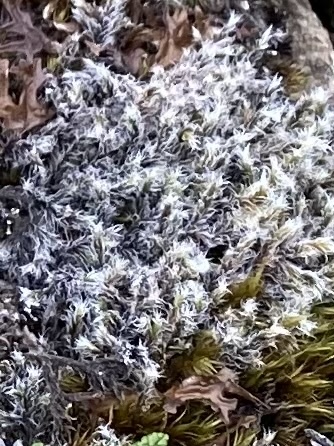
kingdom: Plantae
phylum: Bryophyta
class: Bryopsida
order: Grimmiales
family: Grimmiaceae
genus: Racomitrium
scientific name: Racomitrium lanuginosum
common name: Hoary rock moss
